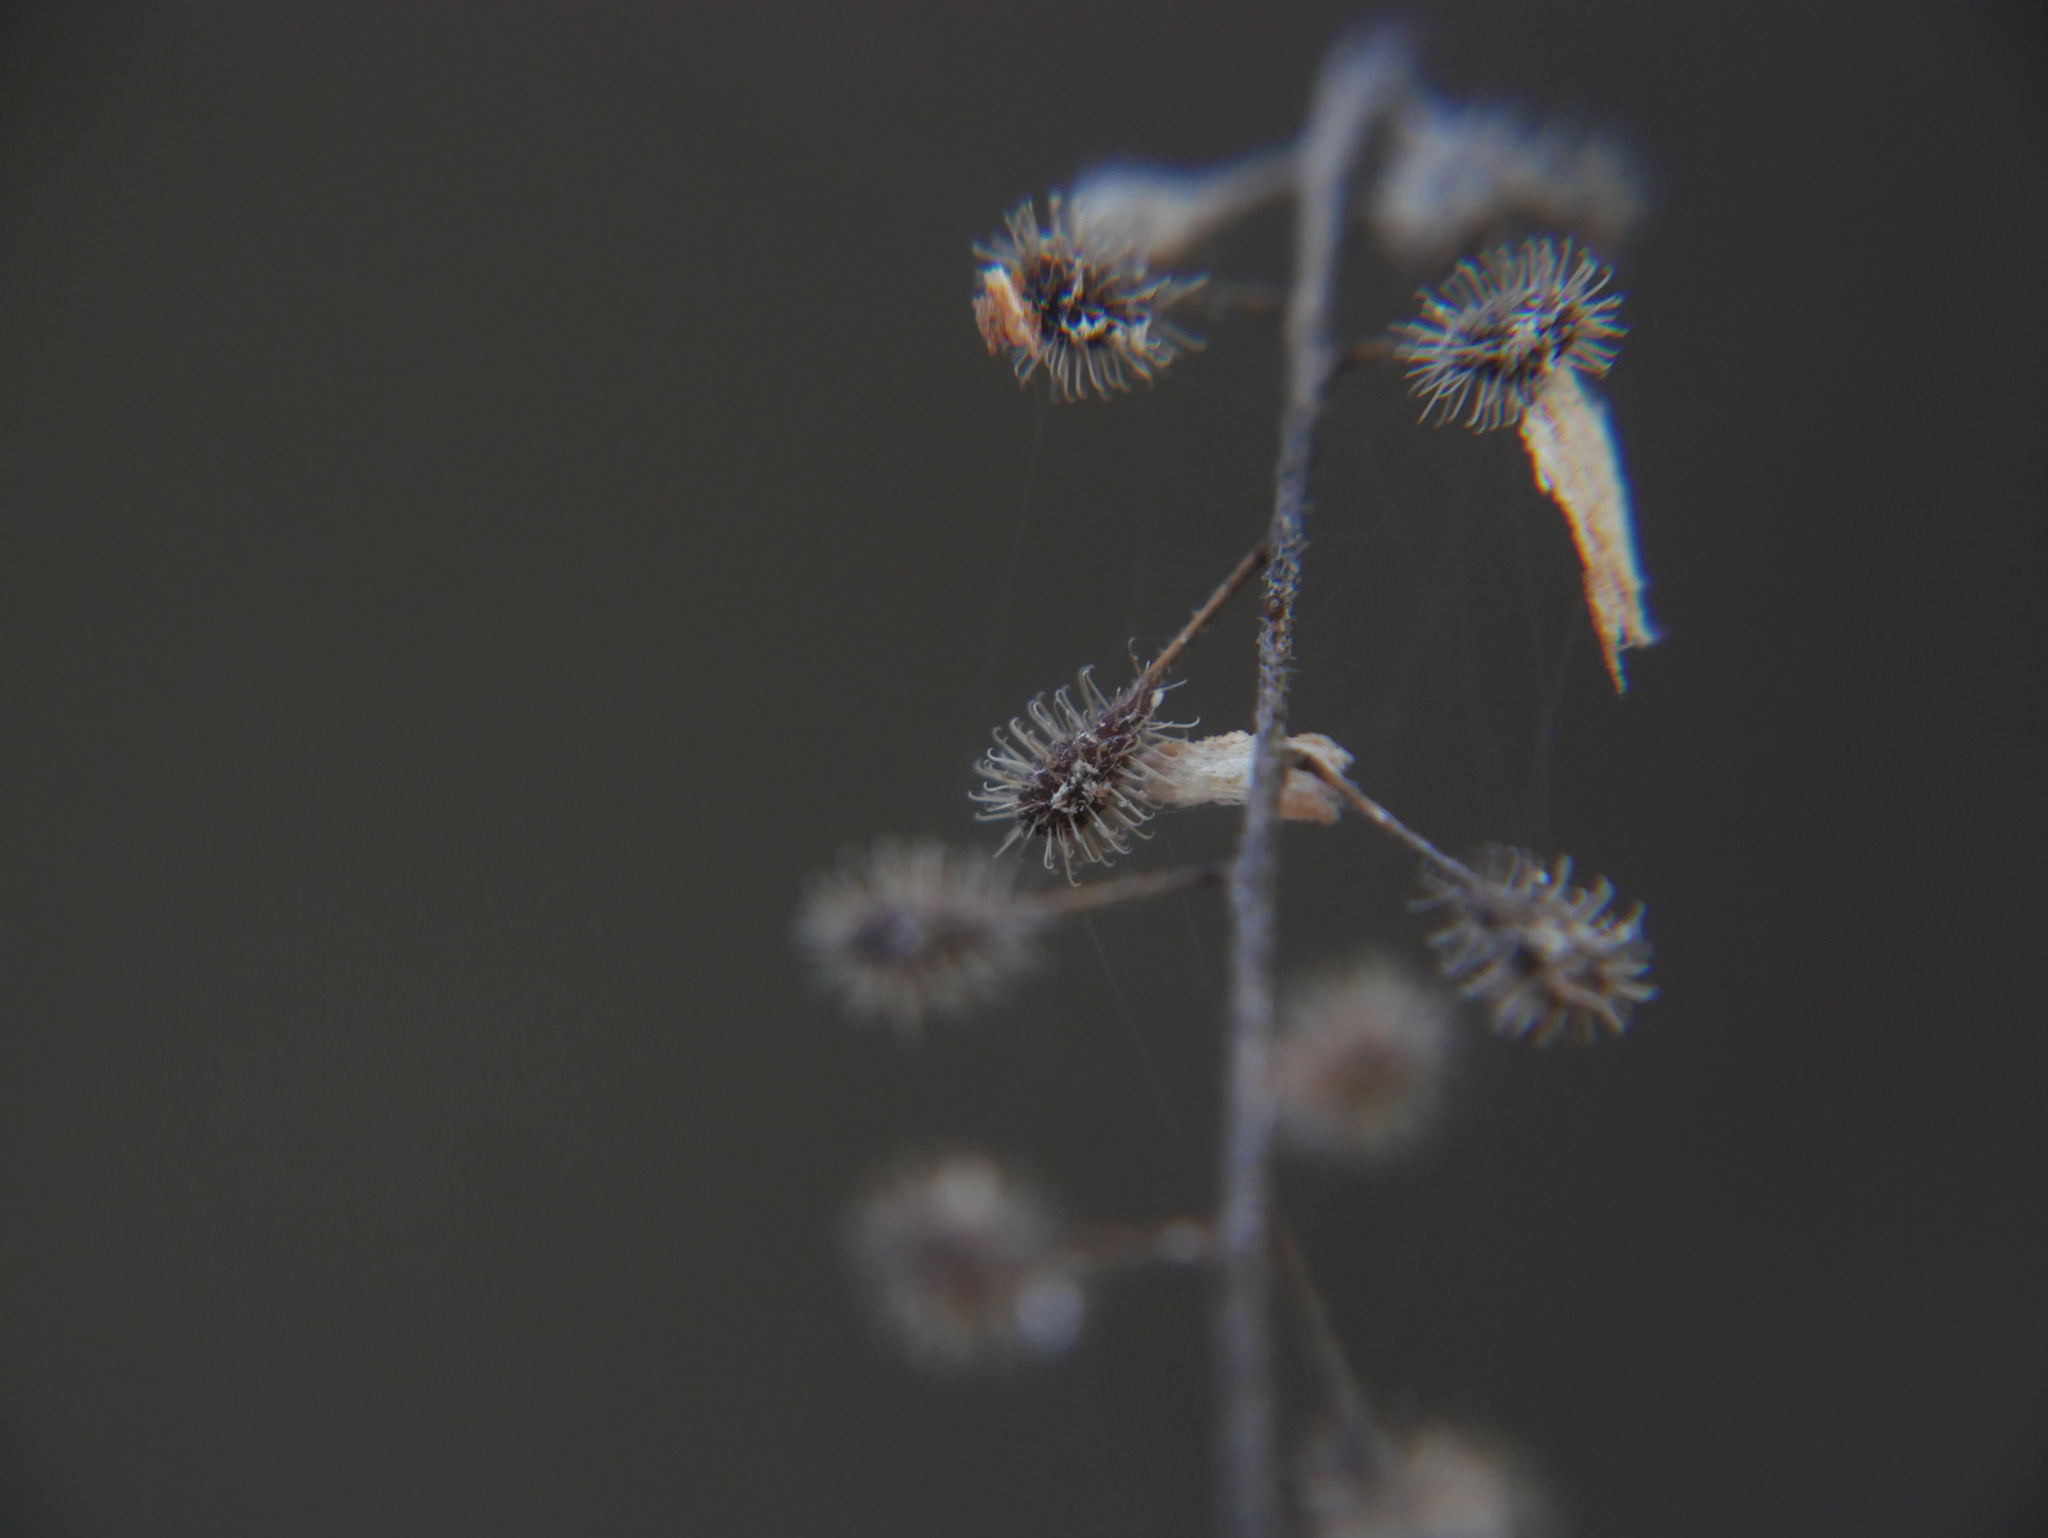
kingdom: Plantae
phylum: Tracheophyta
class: Magnoliopsida
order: Myrtales
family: Onagraceae
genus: Circaea
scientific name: Circaea lutetiana
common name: Enchanter's-nightshade
